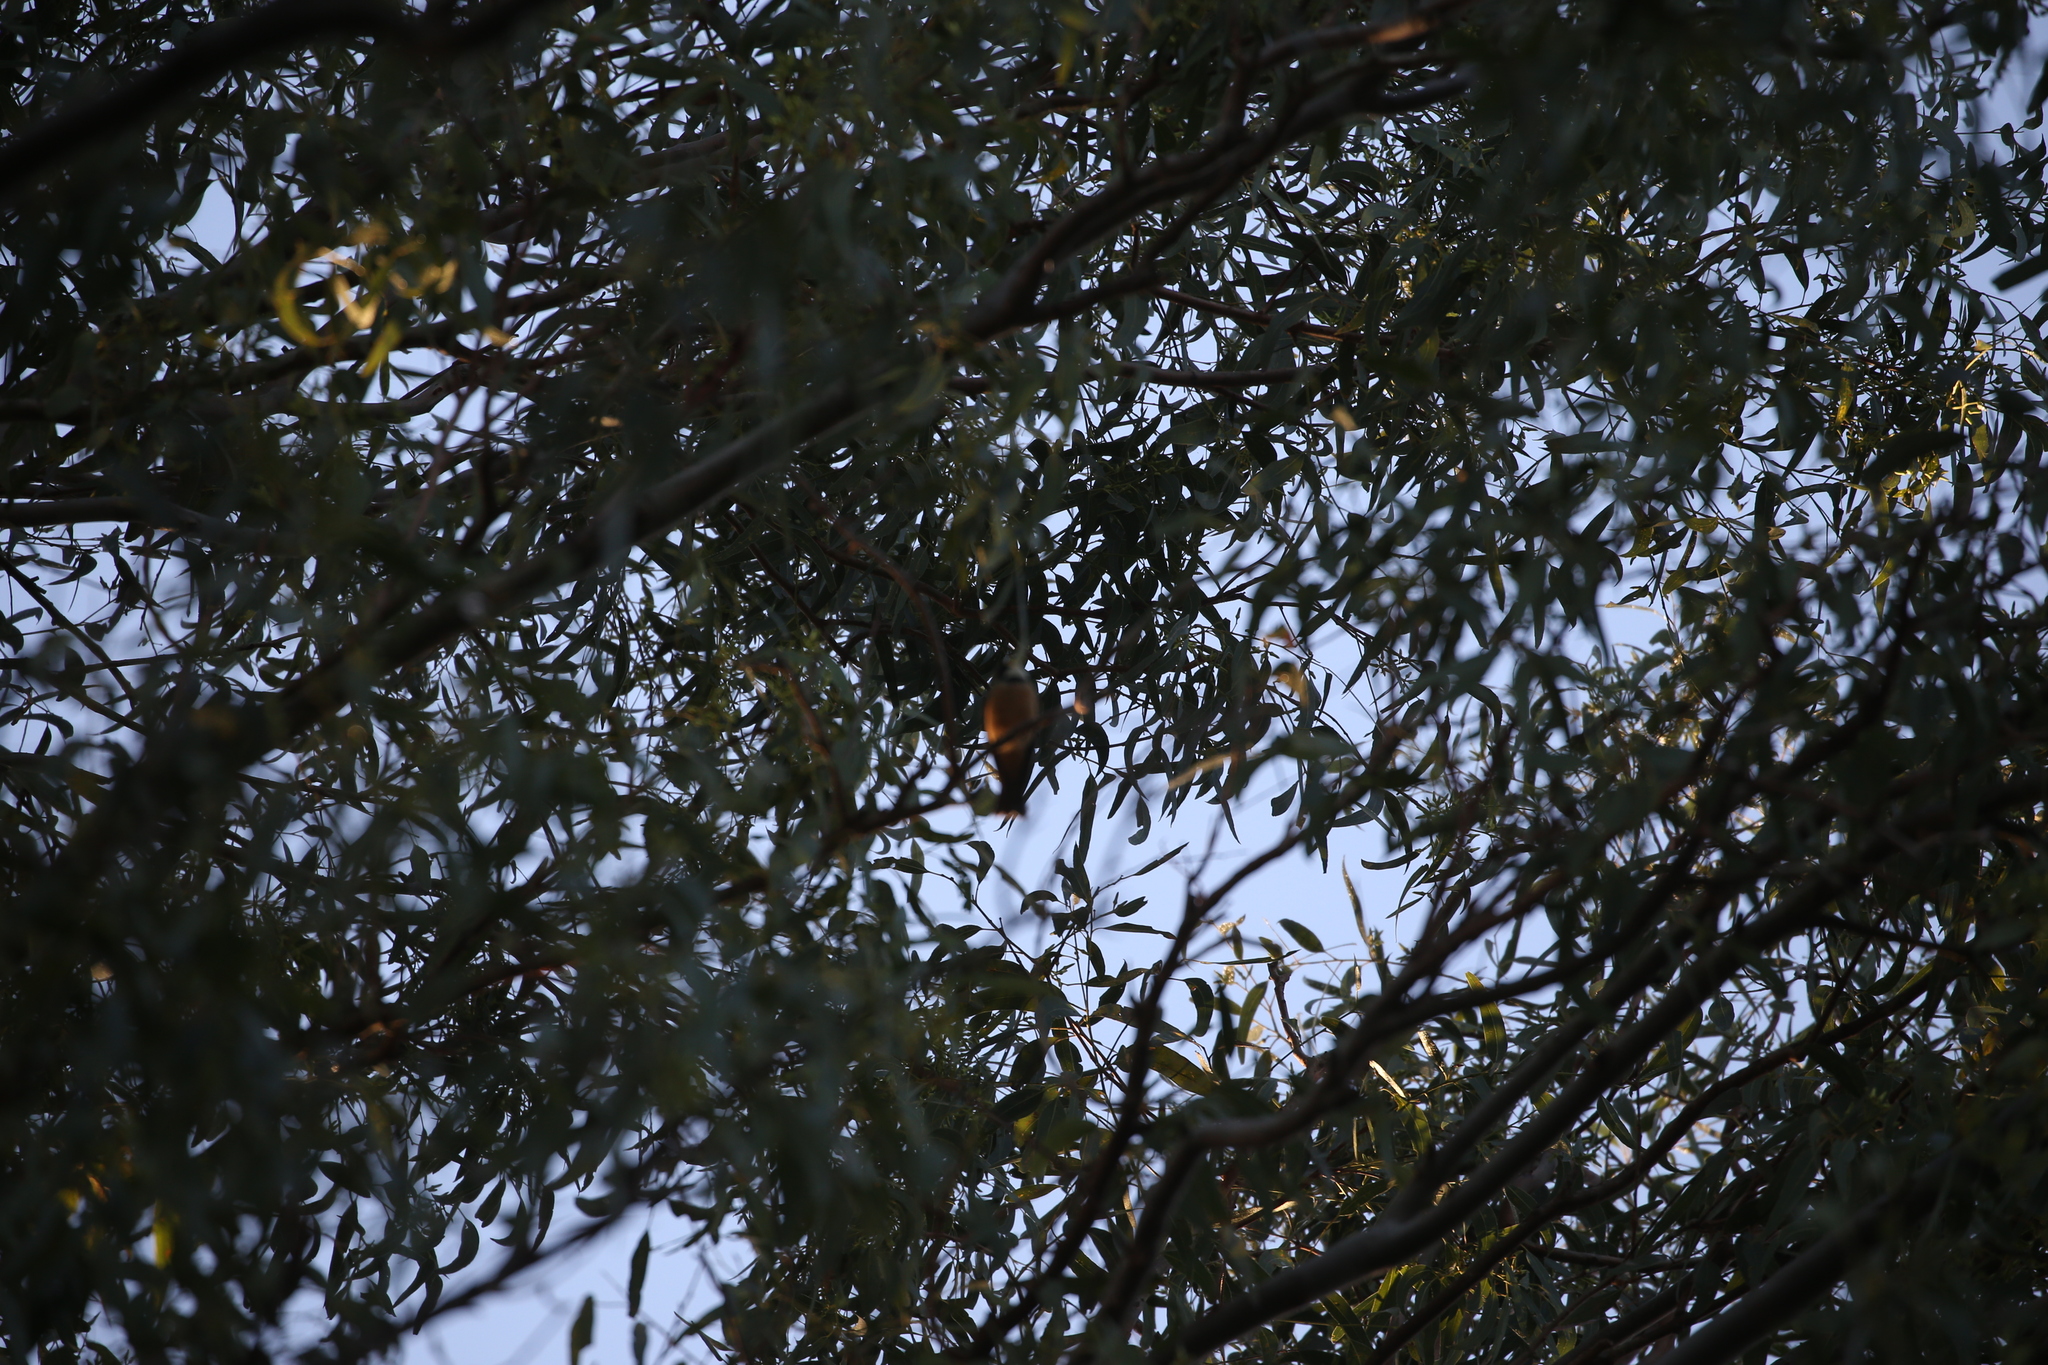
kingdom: Animalia
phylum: Chordata
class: Aves
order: Passeriformes
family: Pachycephalidae
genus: Pachycephala
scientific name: Pachycephala rufiventris
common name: Rufous whistler
